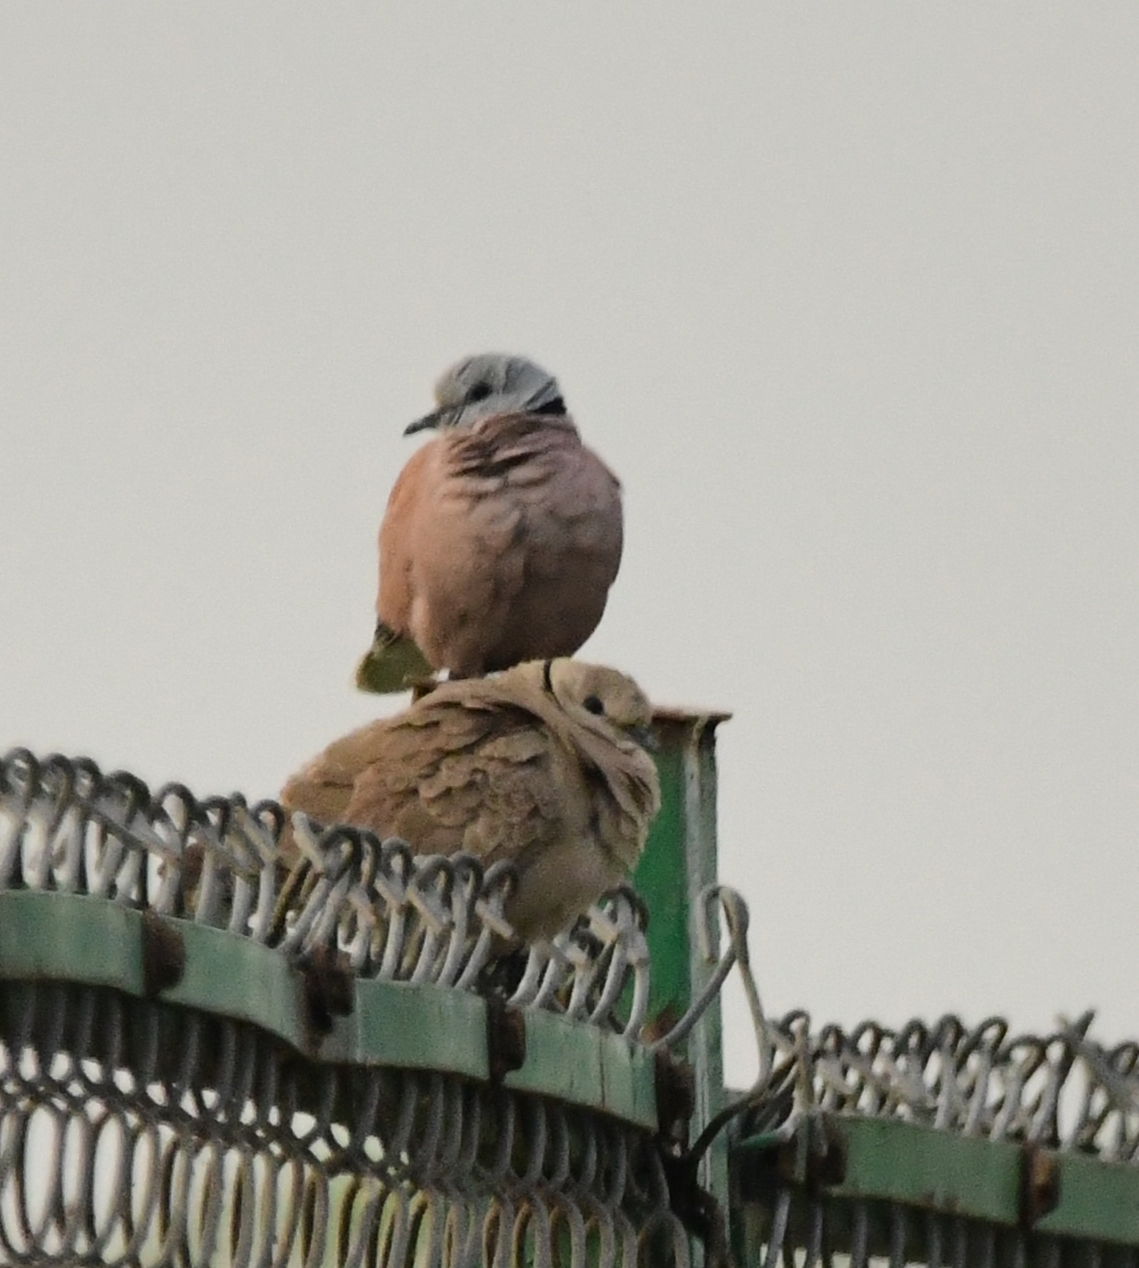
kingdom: Animalia
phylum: Chordata
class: Aves
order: Columbiformes
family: Columbidae
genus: Streptopelia
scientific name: Streptopelia tranquebarica
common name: Red turtle dove
